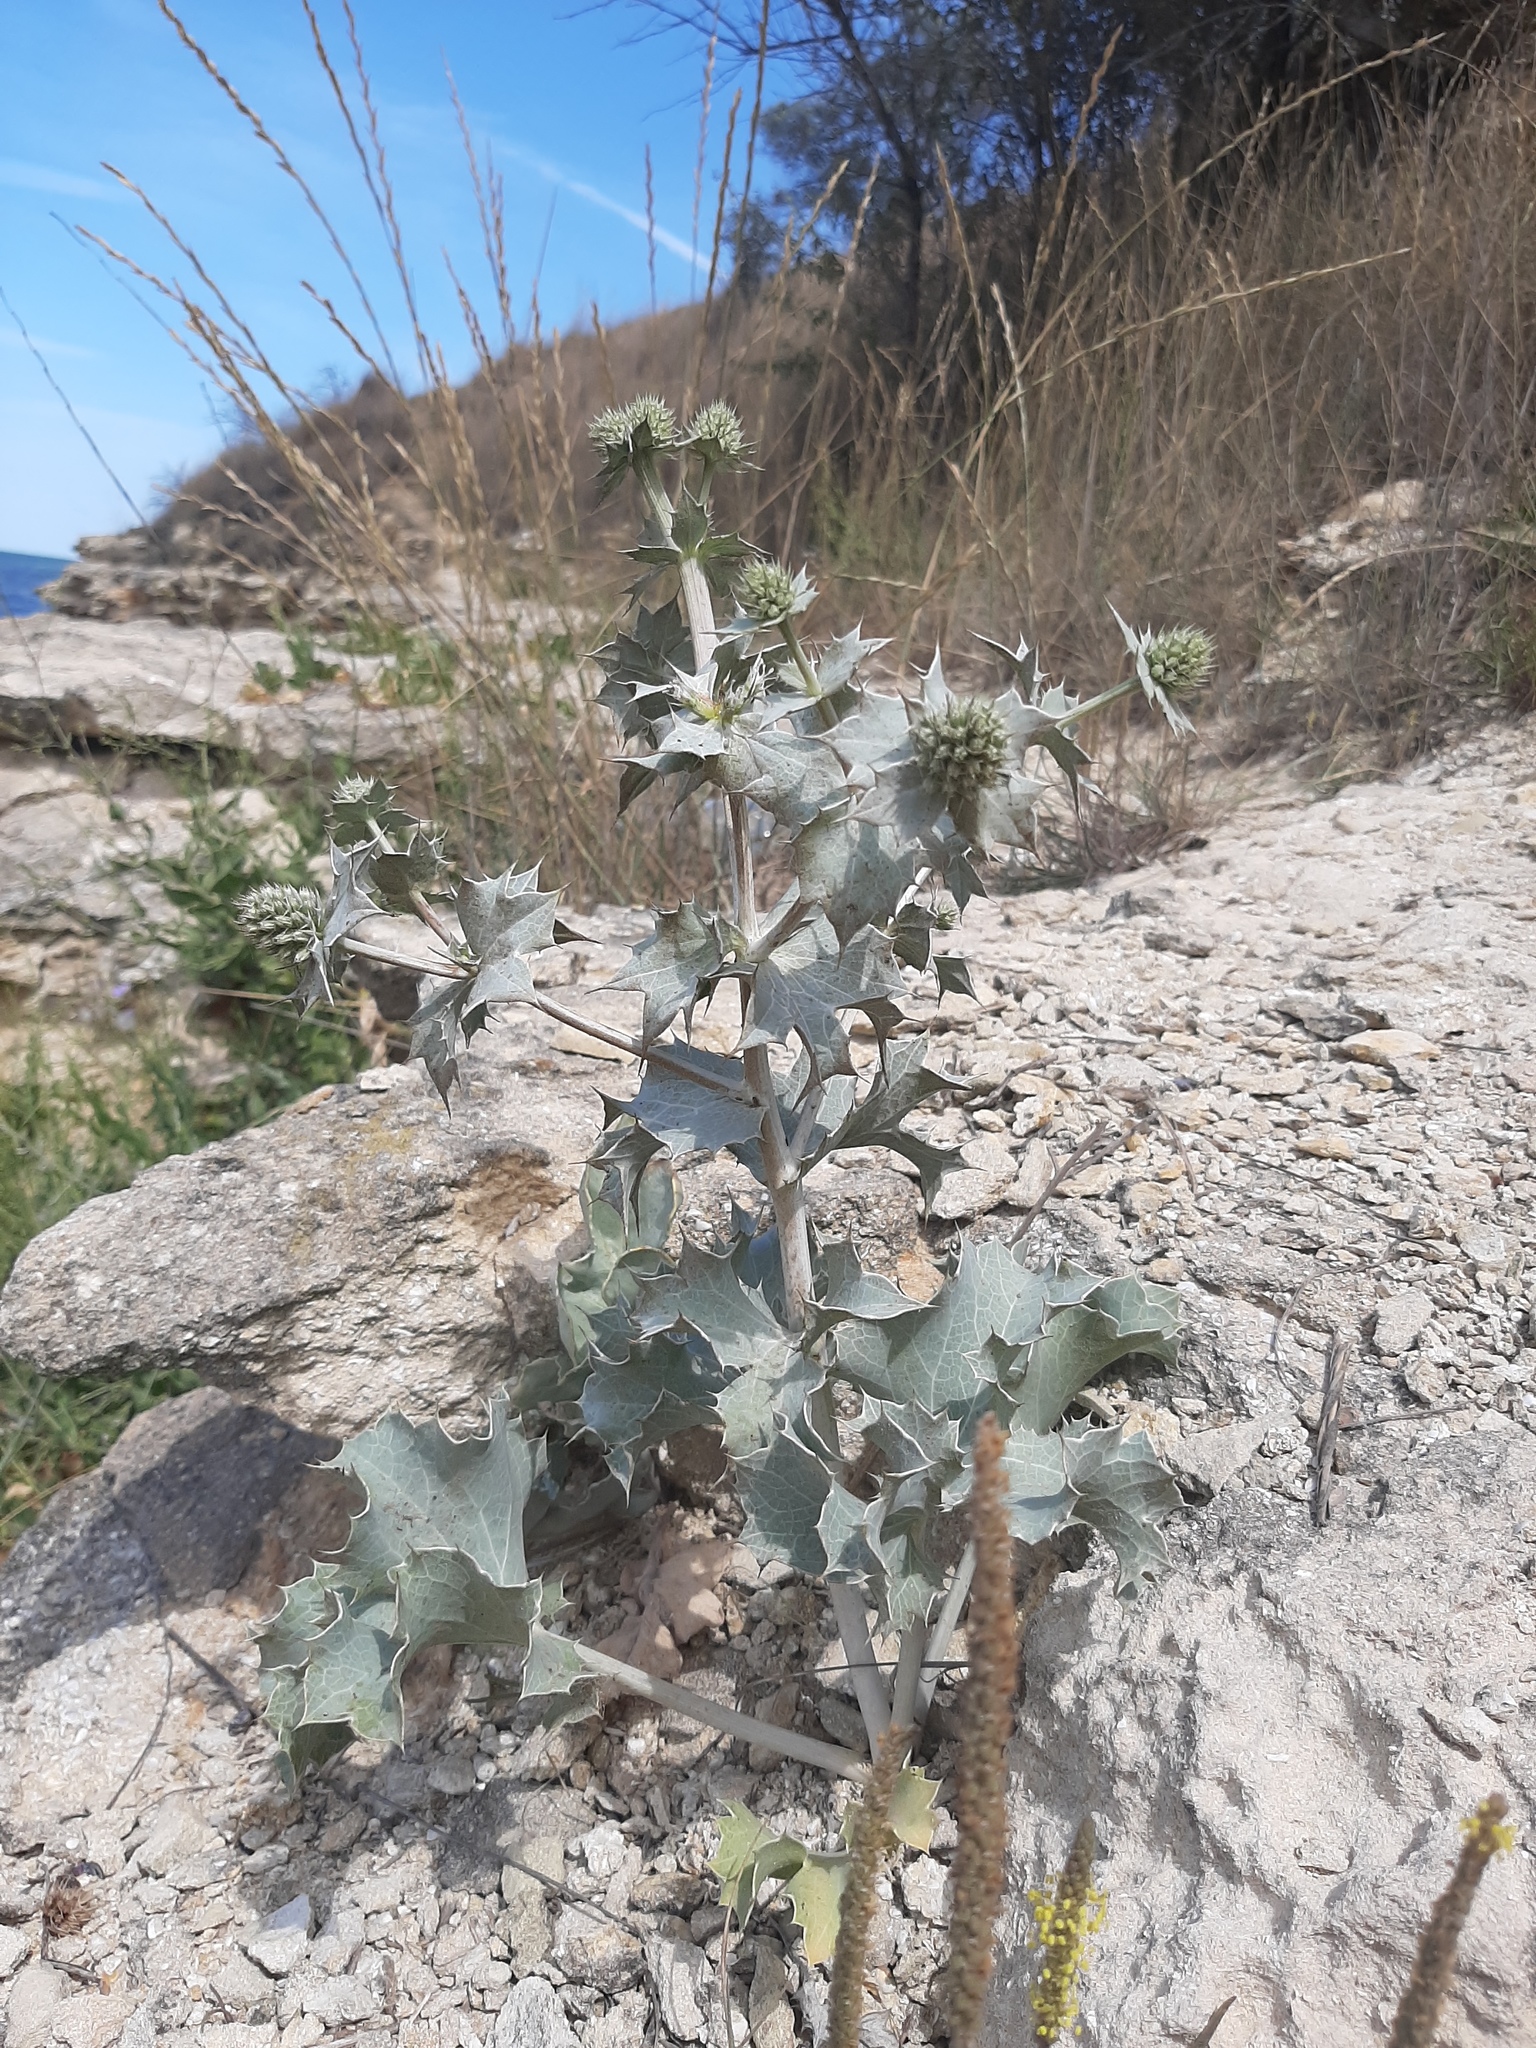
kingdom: Plantae
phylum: Tracheophyta
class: Magnoliopsida
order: Apiales
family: Apiaceae
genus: Eryngium
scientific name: Eryngium maritimum
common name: Sea-holly
